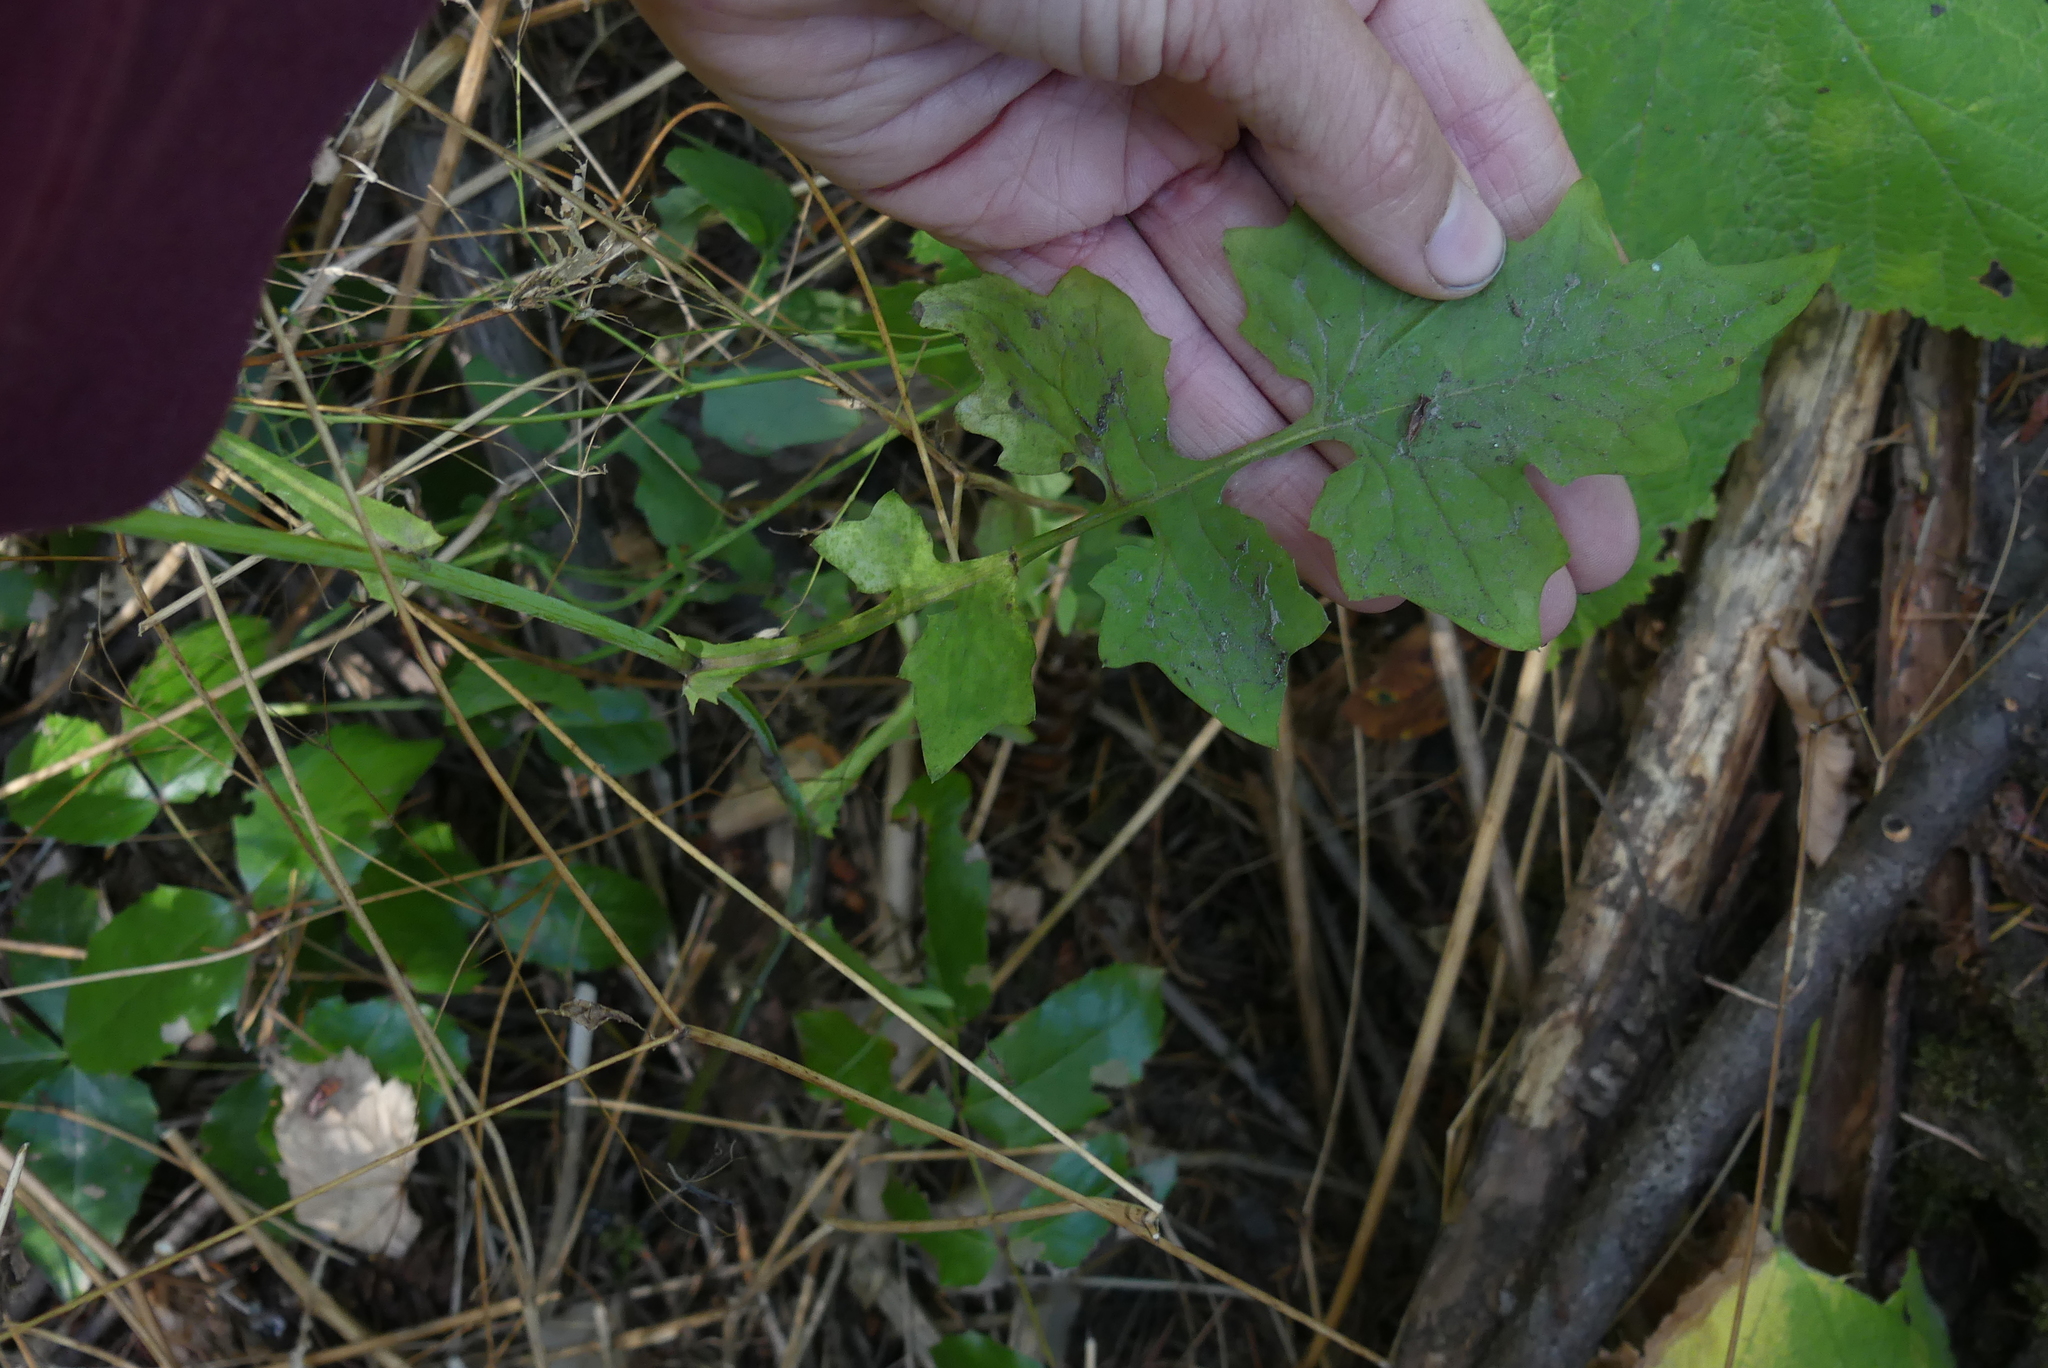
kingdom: Plantae
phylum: Tracheophyta
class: Magnoliopsida
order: Asterales
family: Asteraceae
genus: Mycelis
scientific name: Mycelis muralis
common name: Wall lettuce
